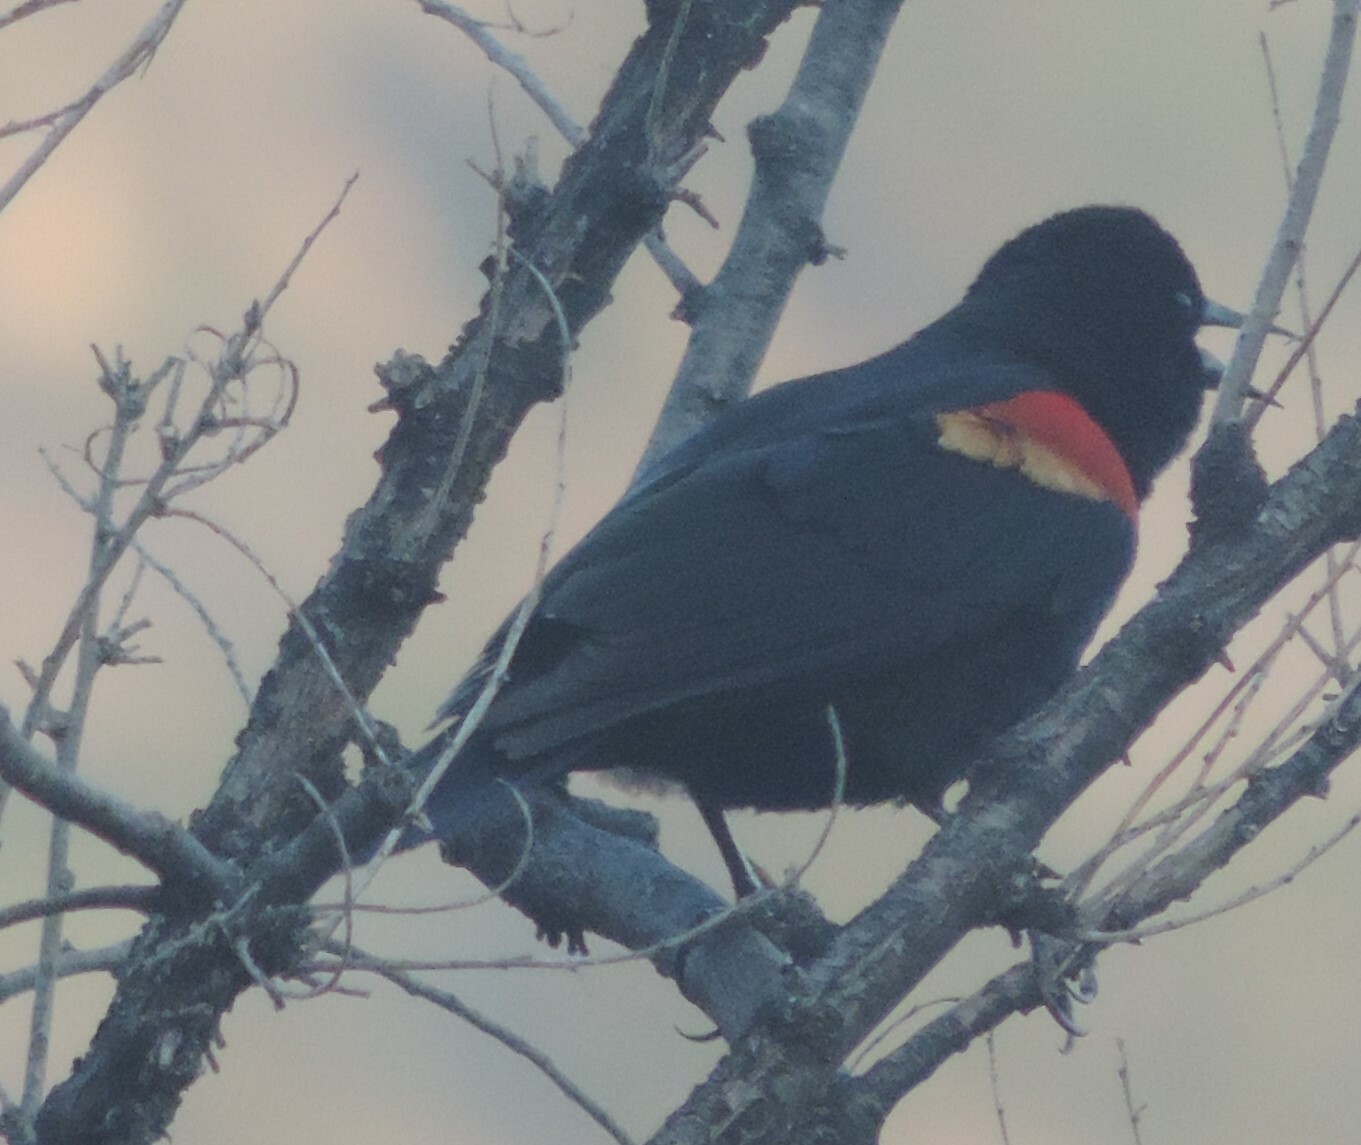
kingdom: Animalia
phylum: Chordata
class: Aves
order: Passeriformes
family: Icteridae
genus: Agelaius
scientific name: Agelaius phoeniceus
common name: Red-winged blackbird
